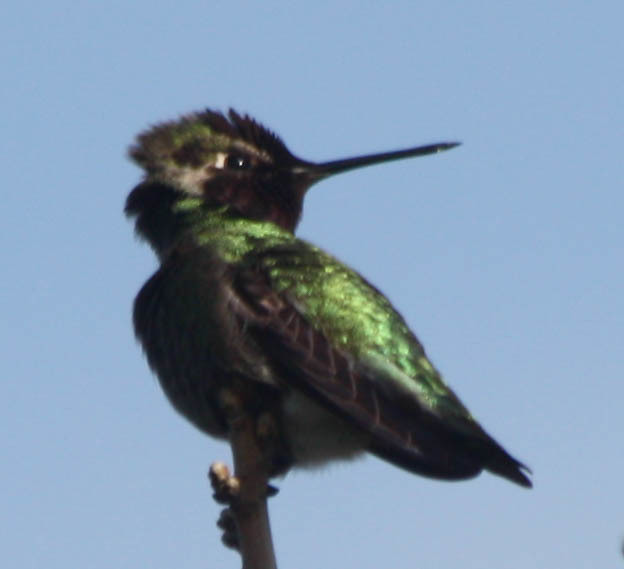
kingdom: Animalia
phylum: Chordata
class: Aves
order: Apodiformes
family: Trochilidae
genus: Calypte
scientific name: Calypte anna
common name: Anna's hummingbird
